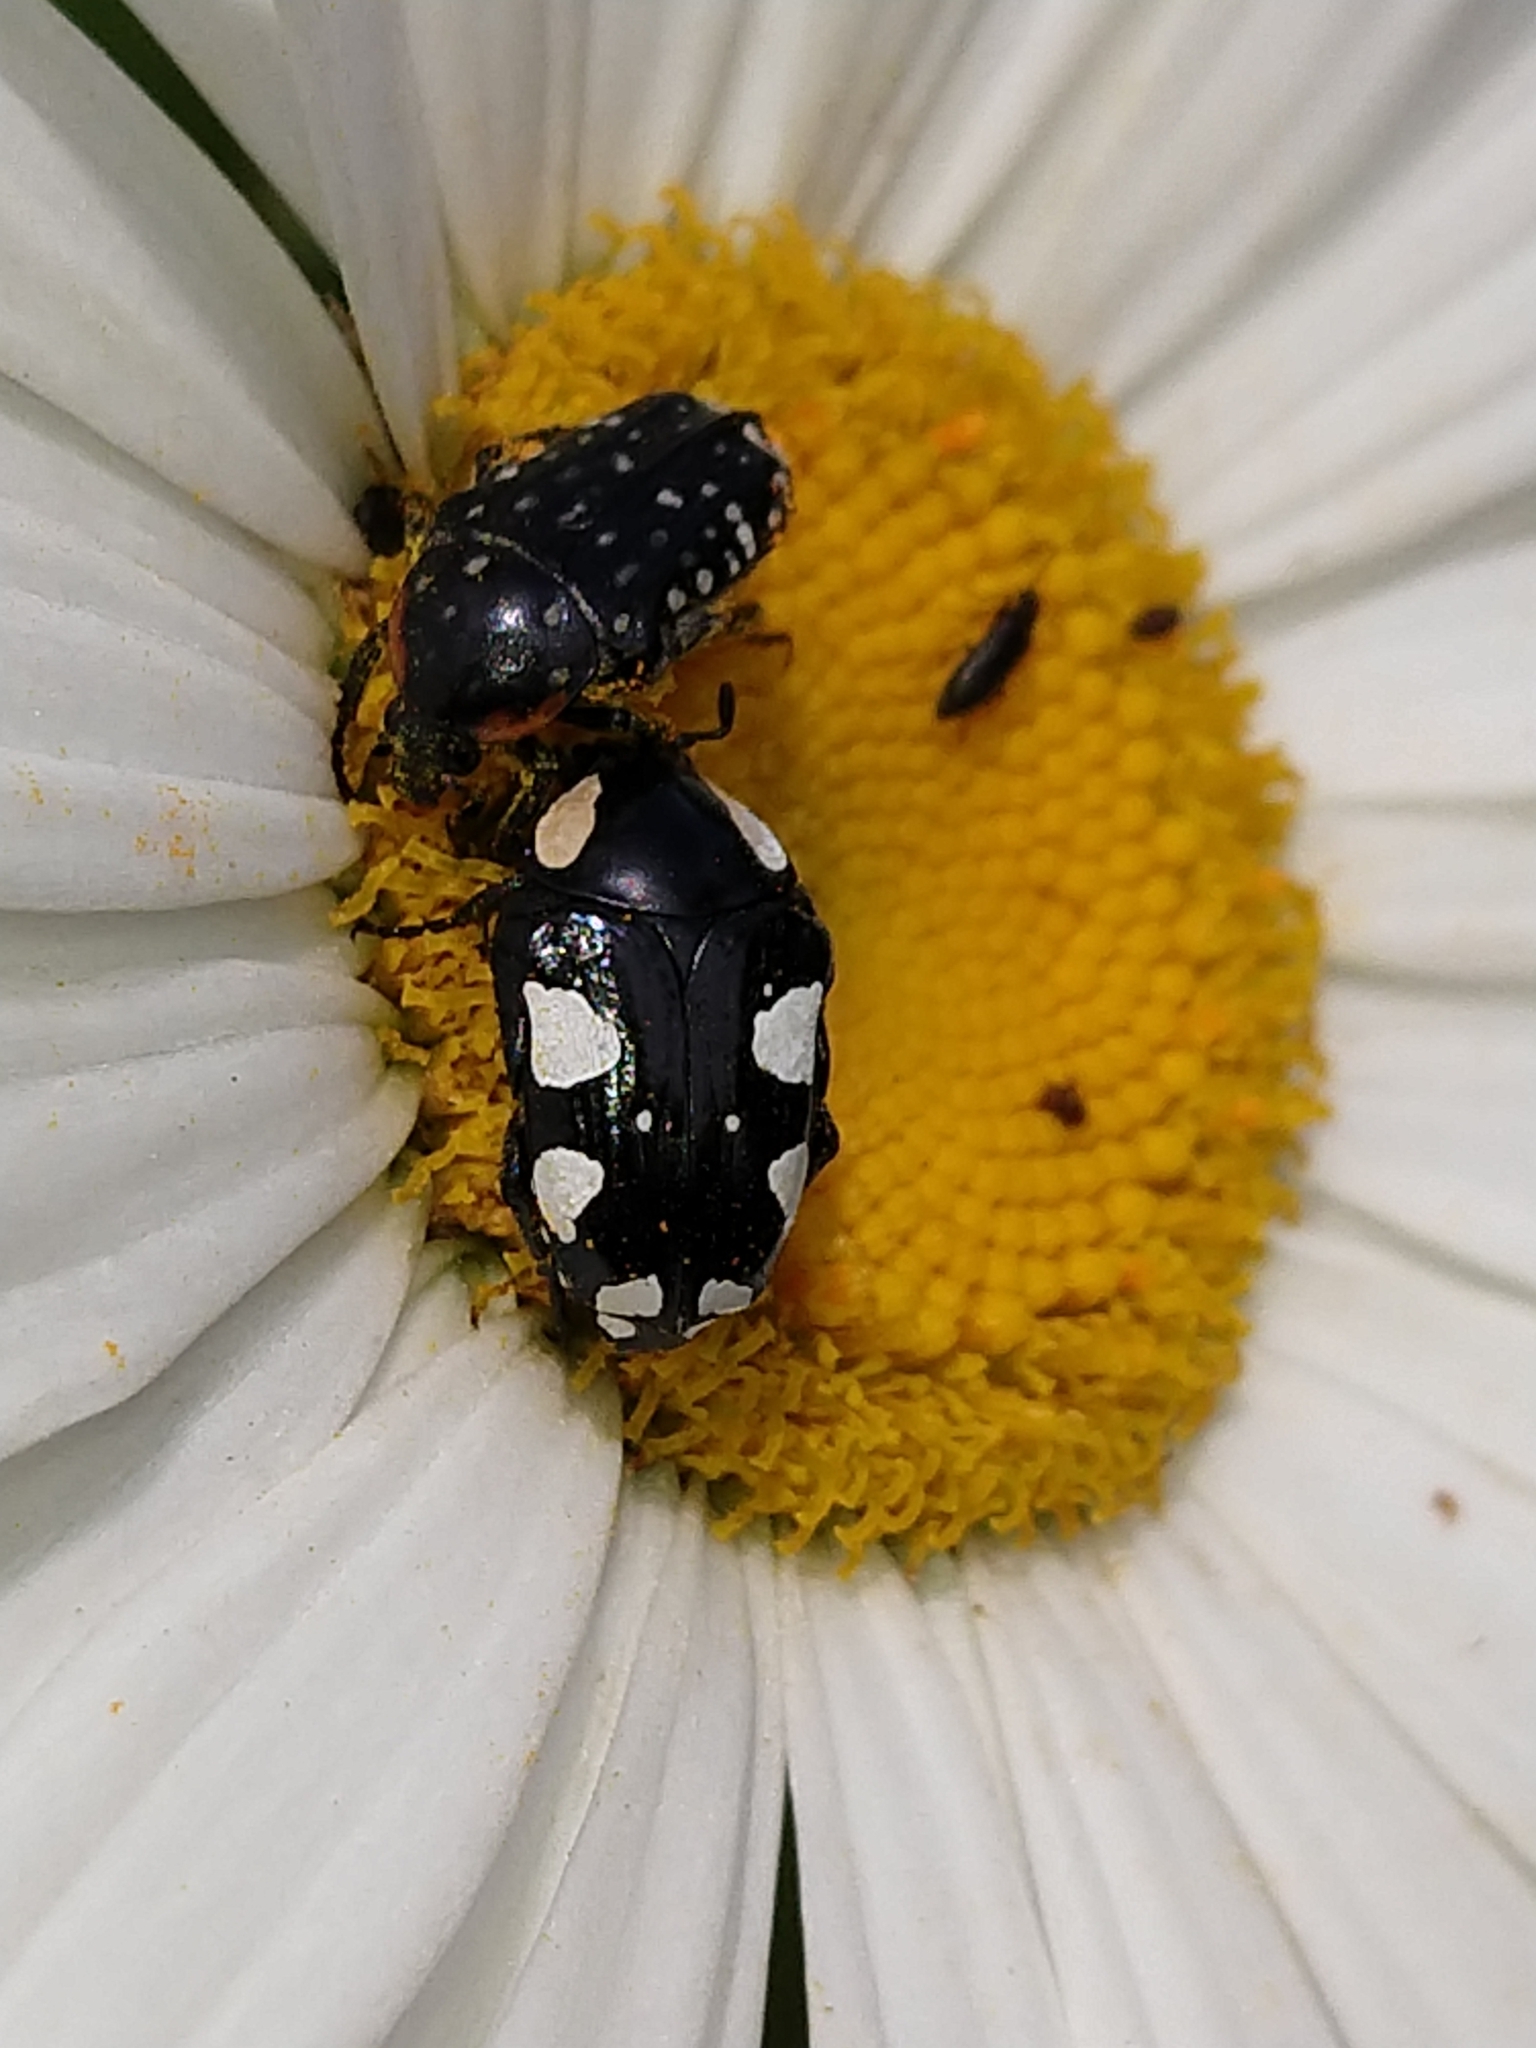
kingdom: Animalia
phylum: Arthropoda
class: Insecta
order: Coleoptera
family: Scarabaeidae
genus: Mausoleopsis
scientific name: Mausoleopsis amabilis
